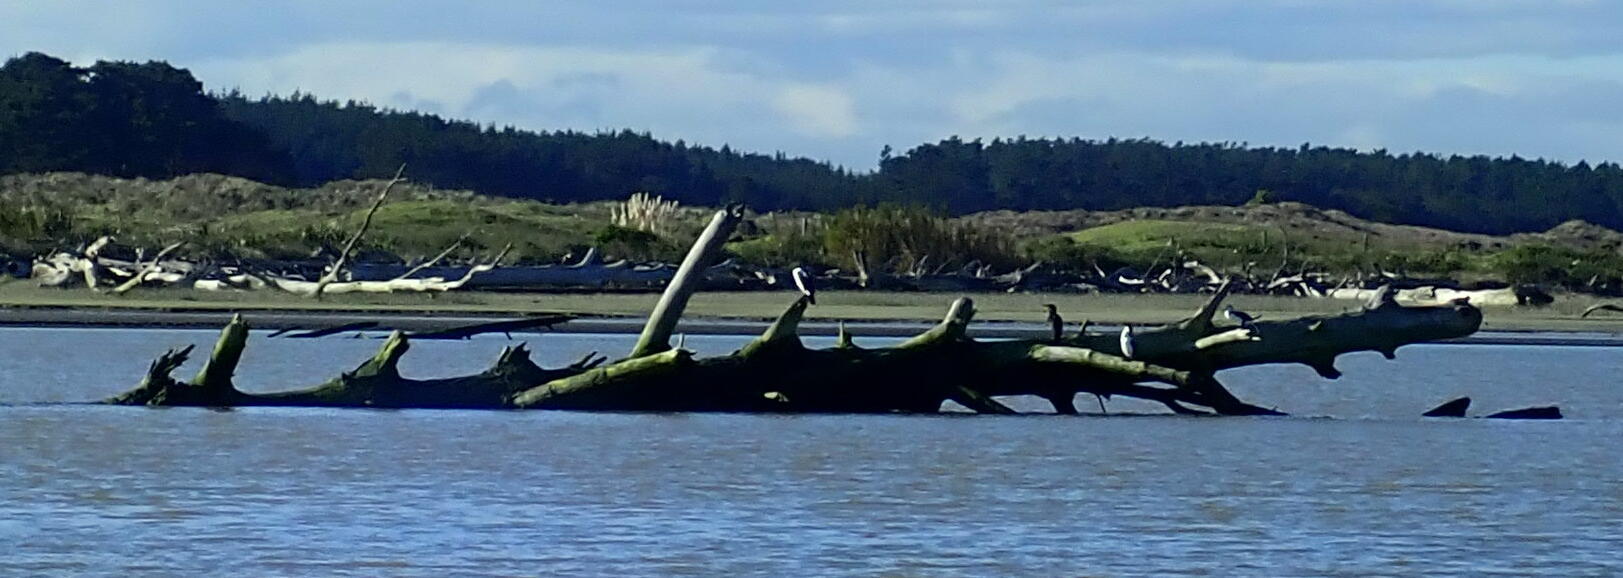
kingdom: Animalia
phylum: Chordata
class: Aves
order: Suliformes
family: Phalacrocoracidae
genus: Phalacrocorax
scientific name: Phalacrocorax varius
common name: Pied cormorant
